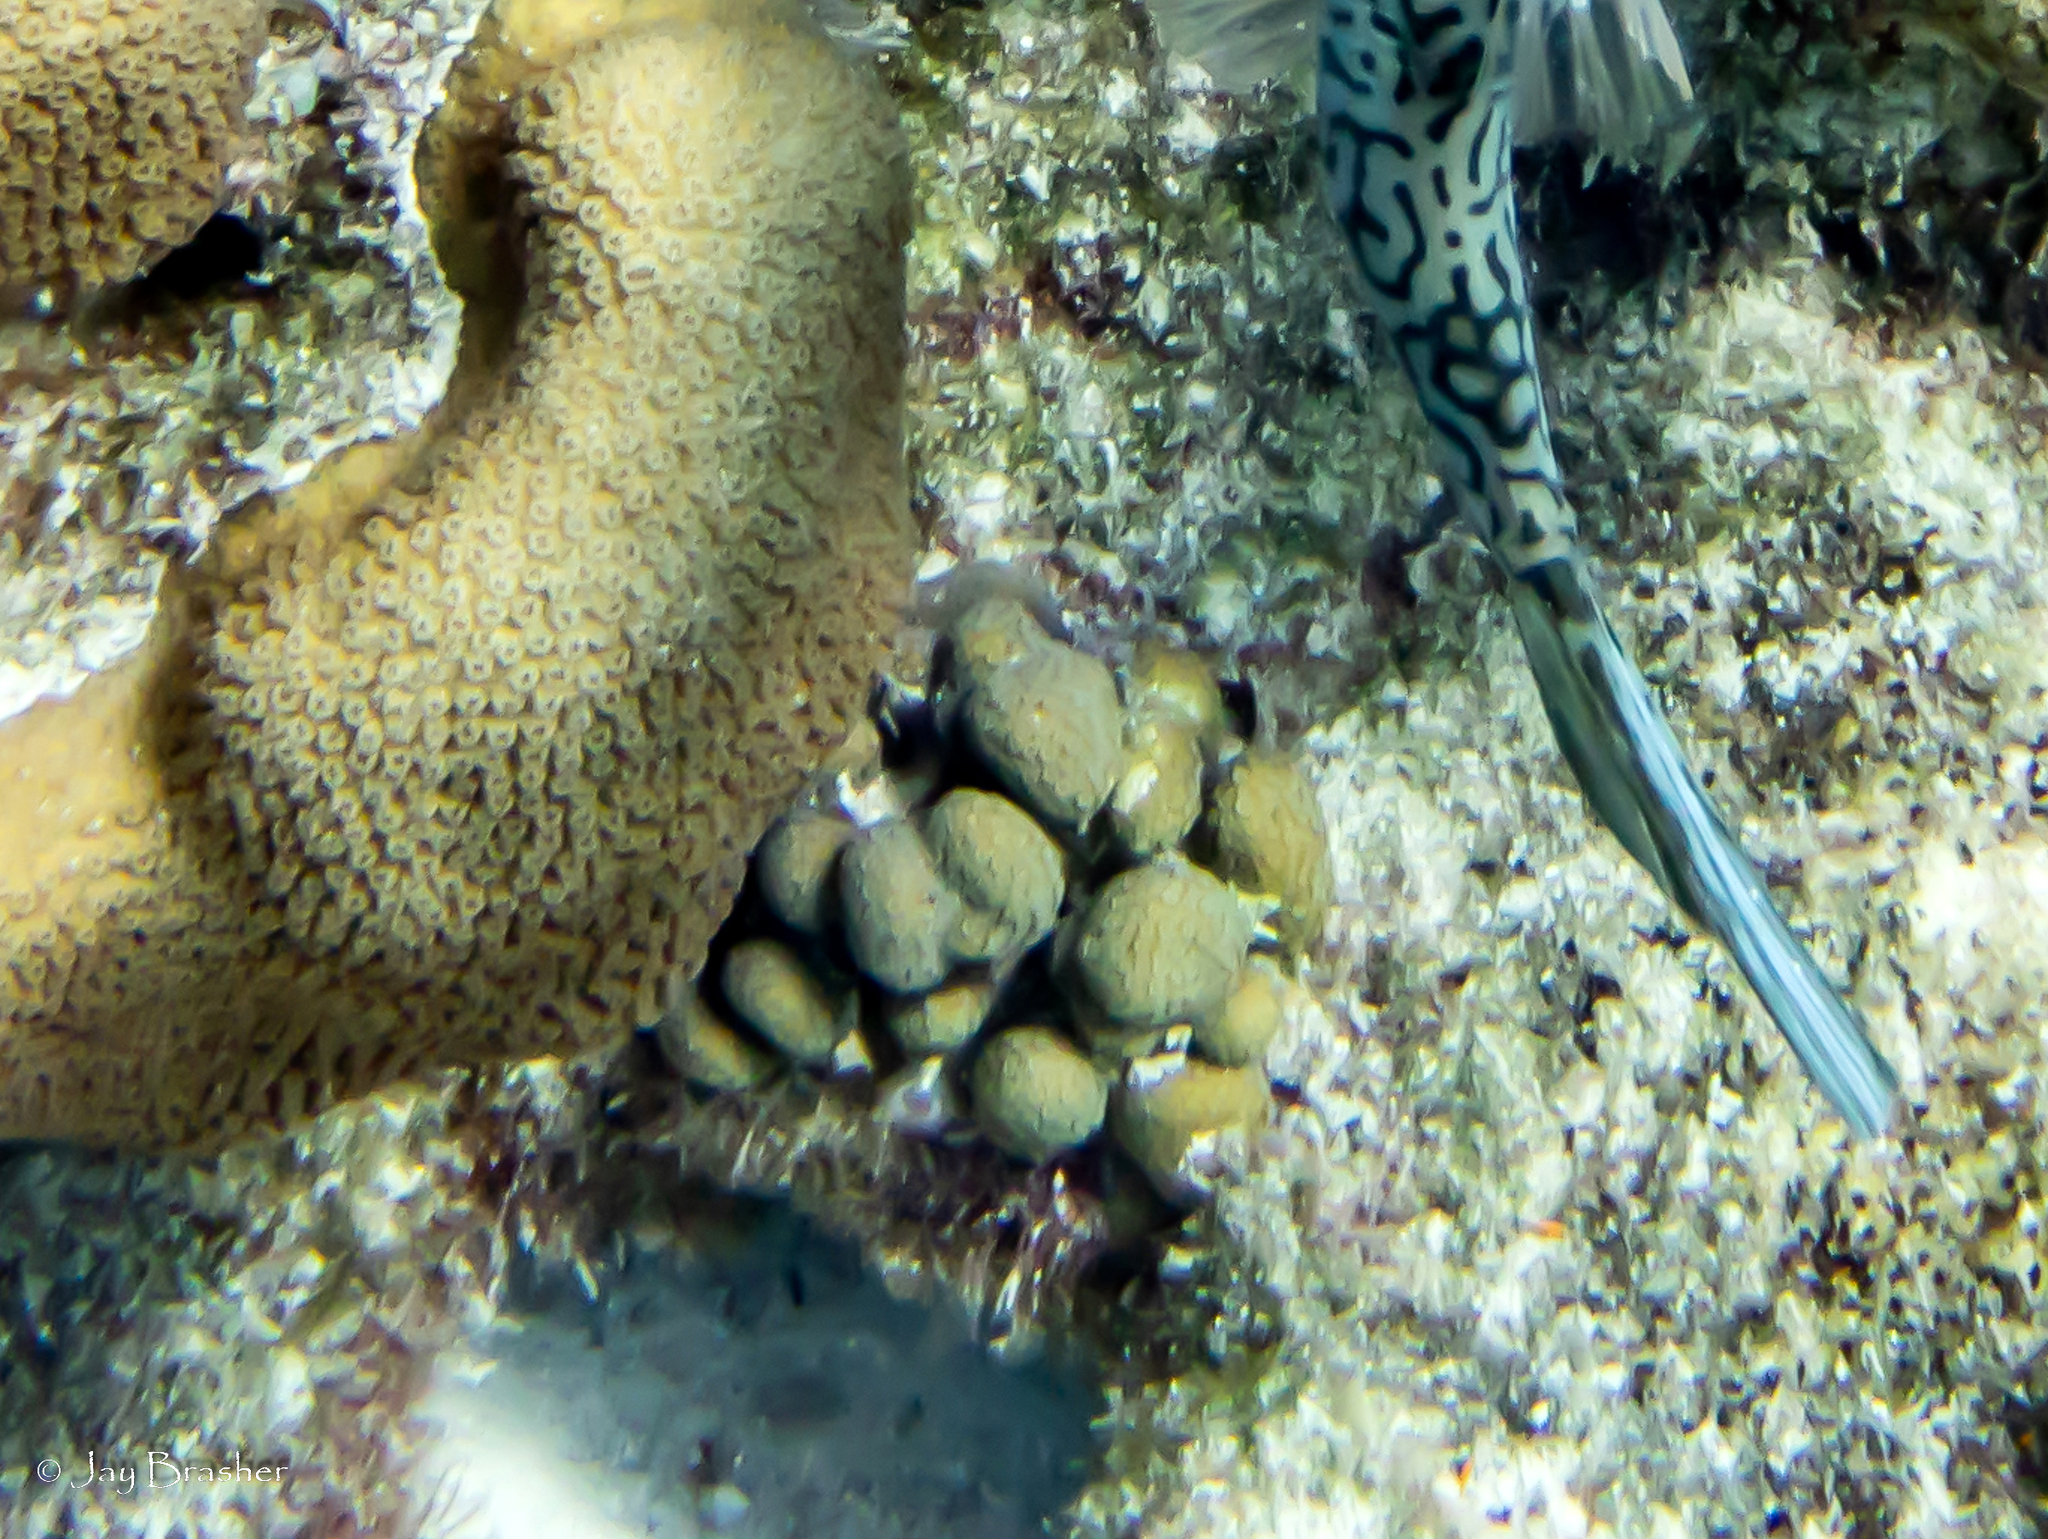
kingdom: Animalia
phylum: Cnidaria
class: Anthozoa
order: Scleractinia
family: Pocilloporidae
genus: Madracis
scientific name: Madracis decactis
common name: Ten-ray star coral
